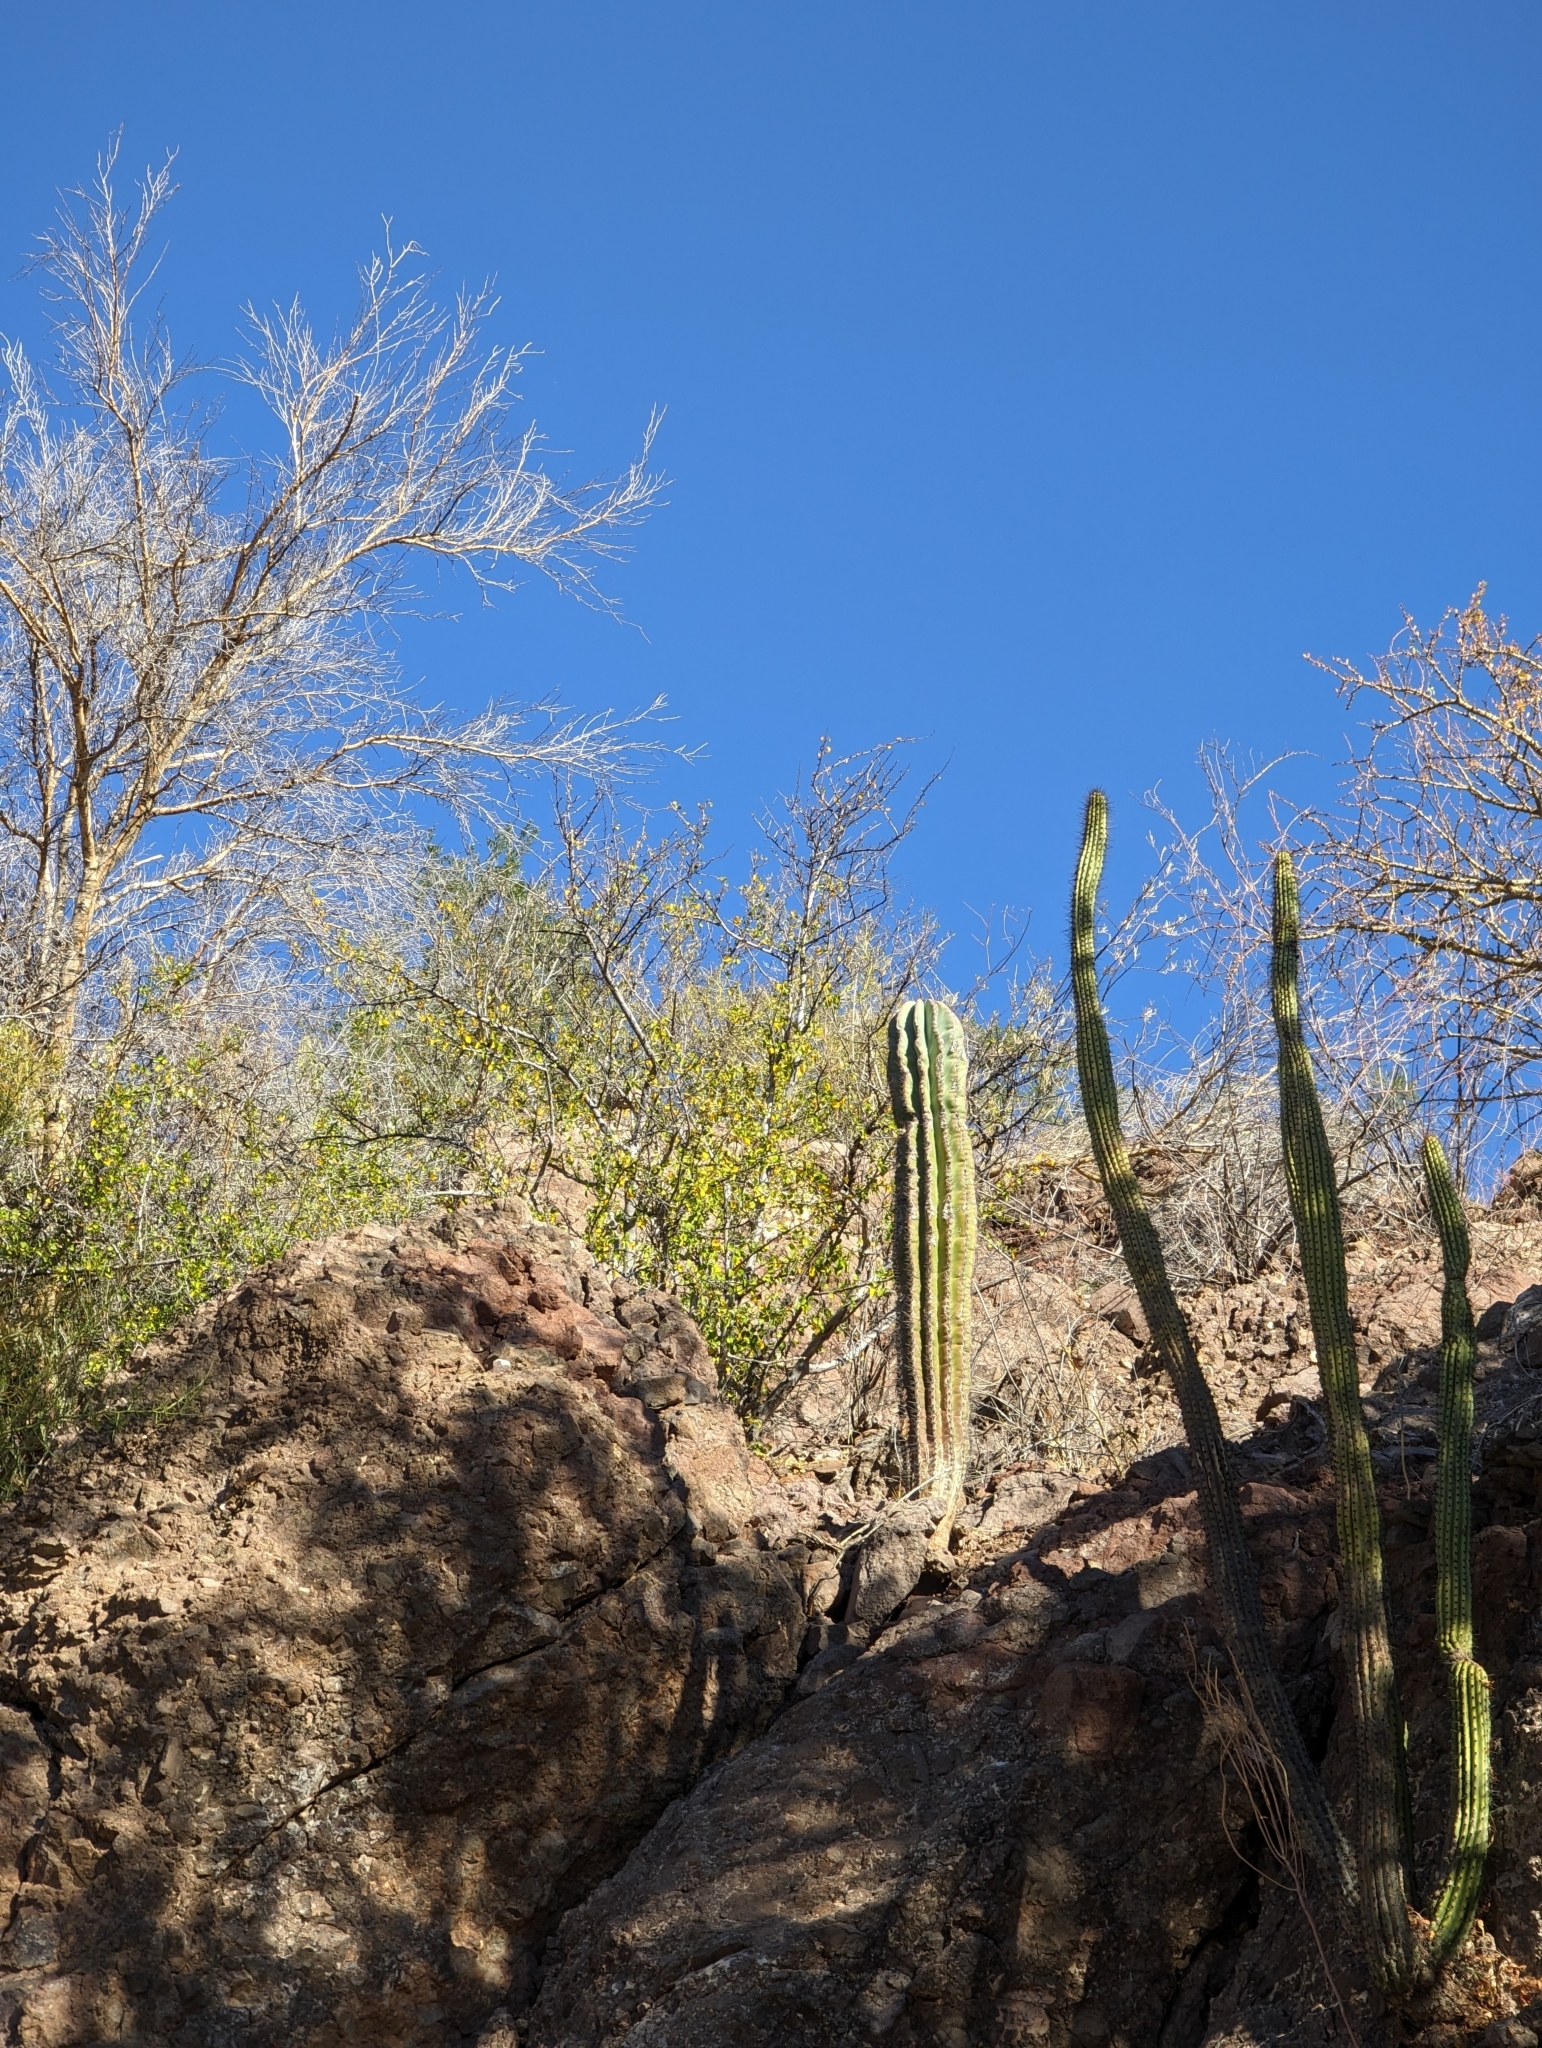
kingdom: Plantae
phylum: Tracheophyta
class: Magnoliopsida
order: Caryophyllales
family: Cactaceae
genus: Pachycereus
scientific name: Pachycereus pringlei
